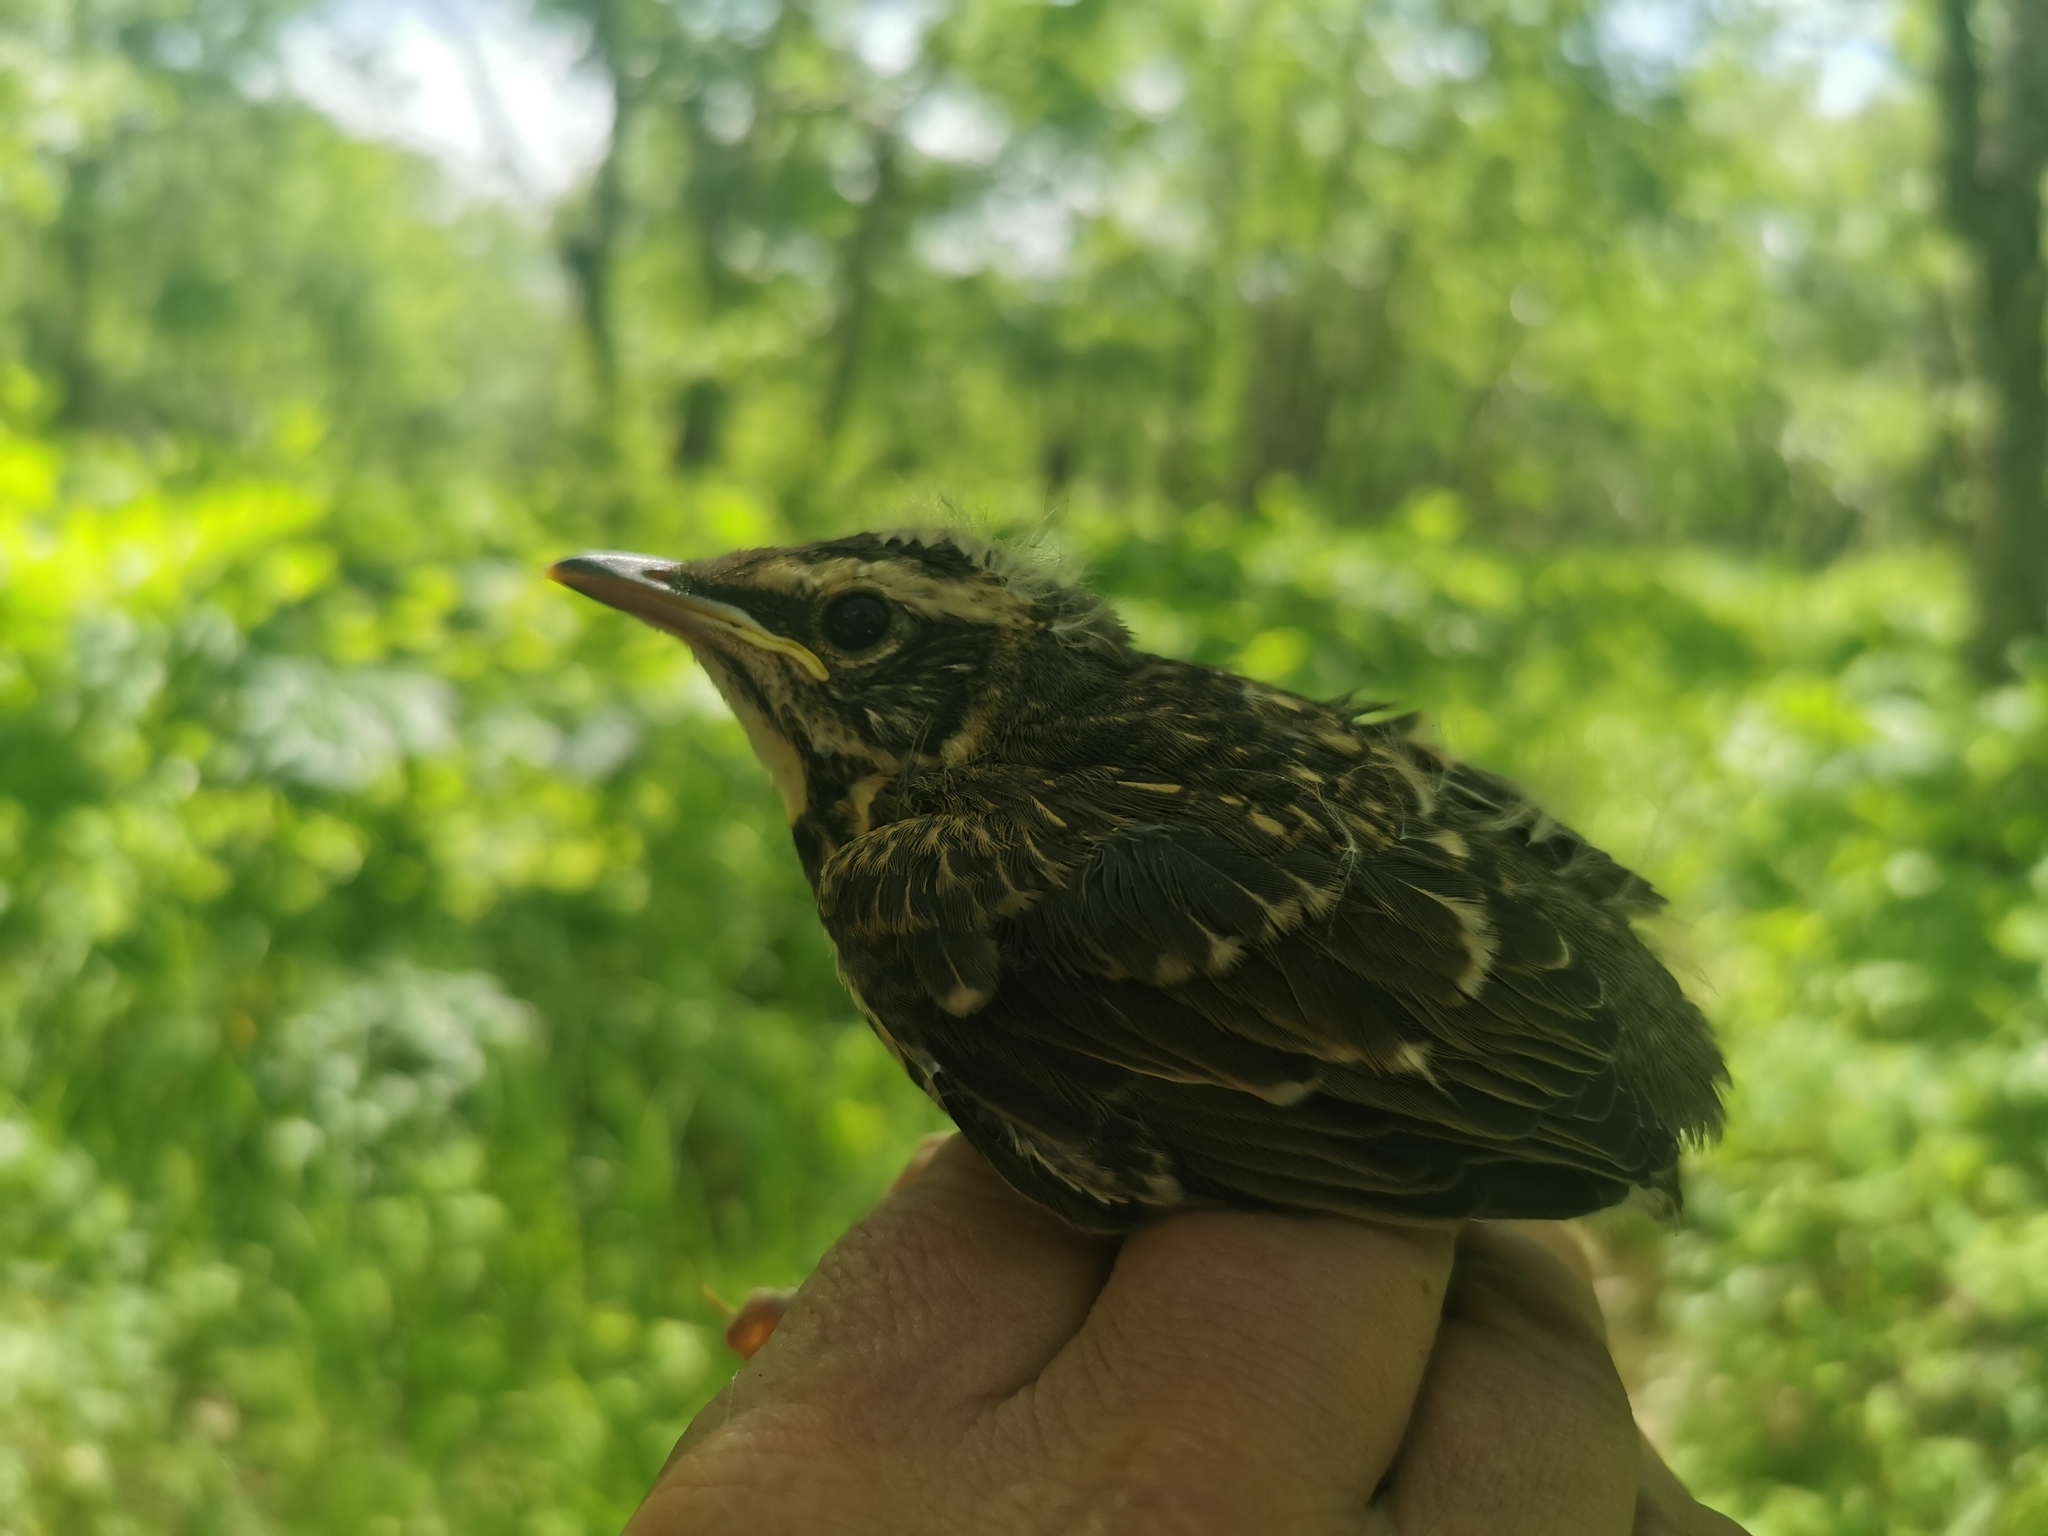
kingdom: Animalia
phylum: Chordata
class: Aves
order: Passeriformes
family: Turdidae
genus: Turdus
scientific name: Turdus obscurus
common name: Eyebrowed thrush
